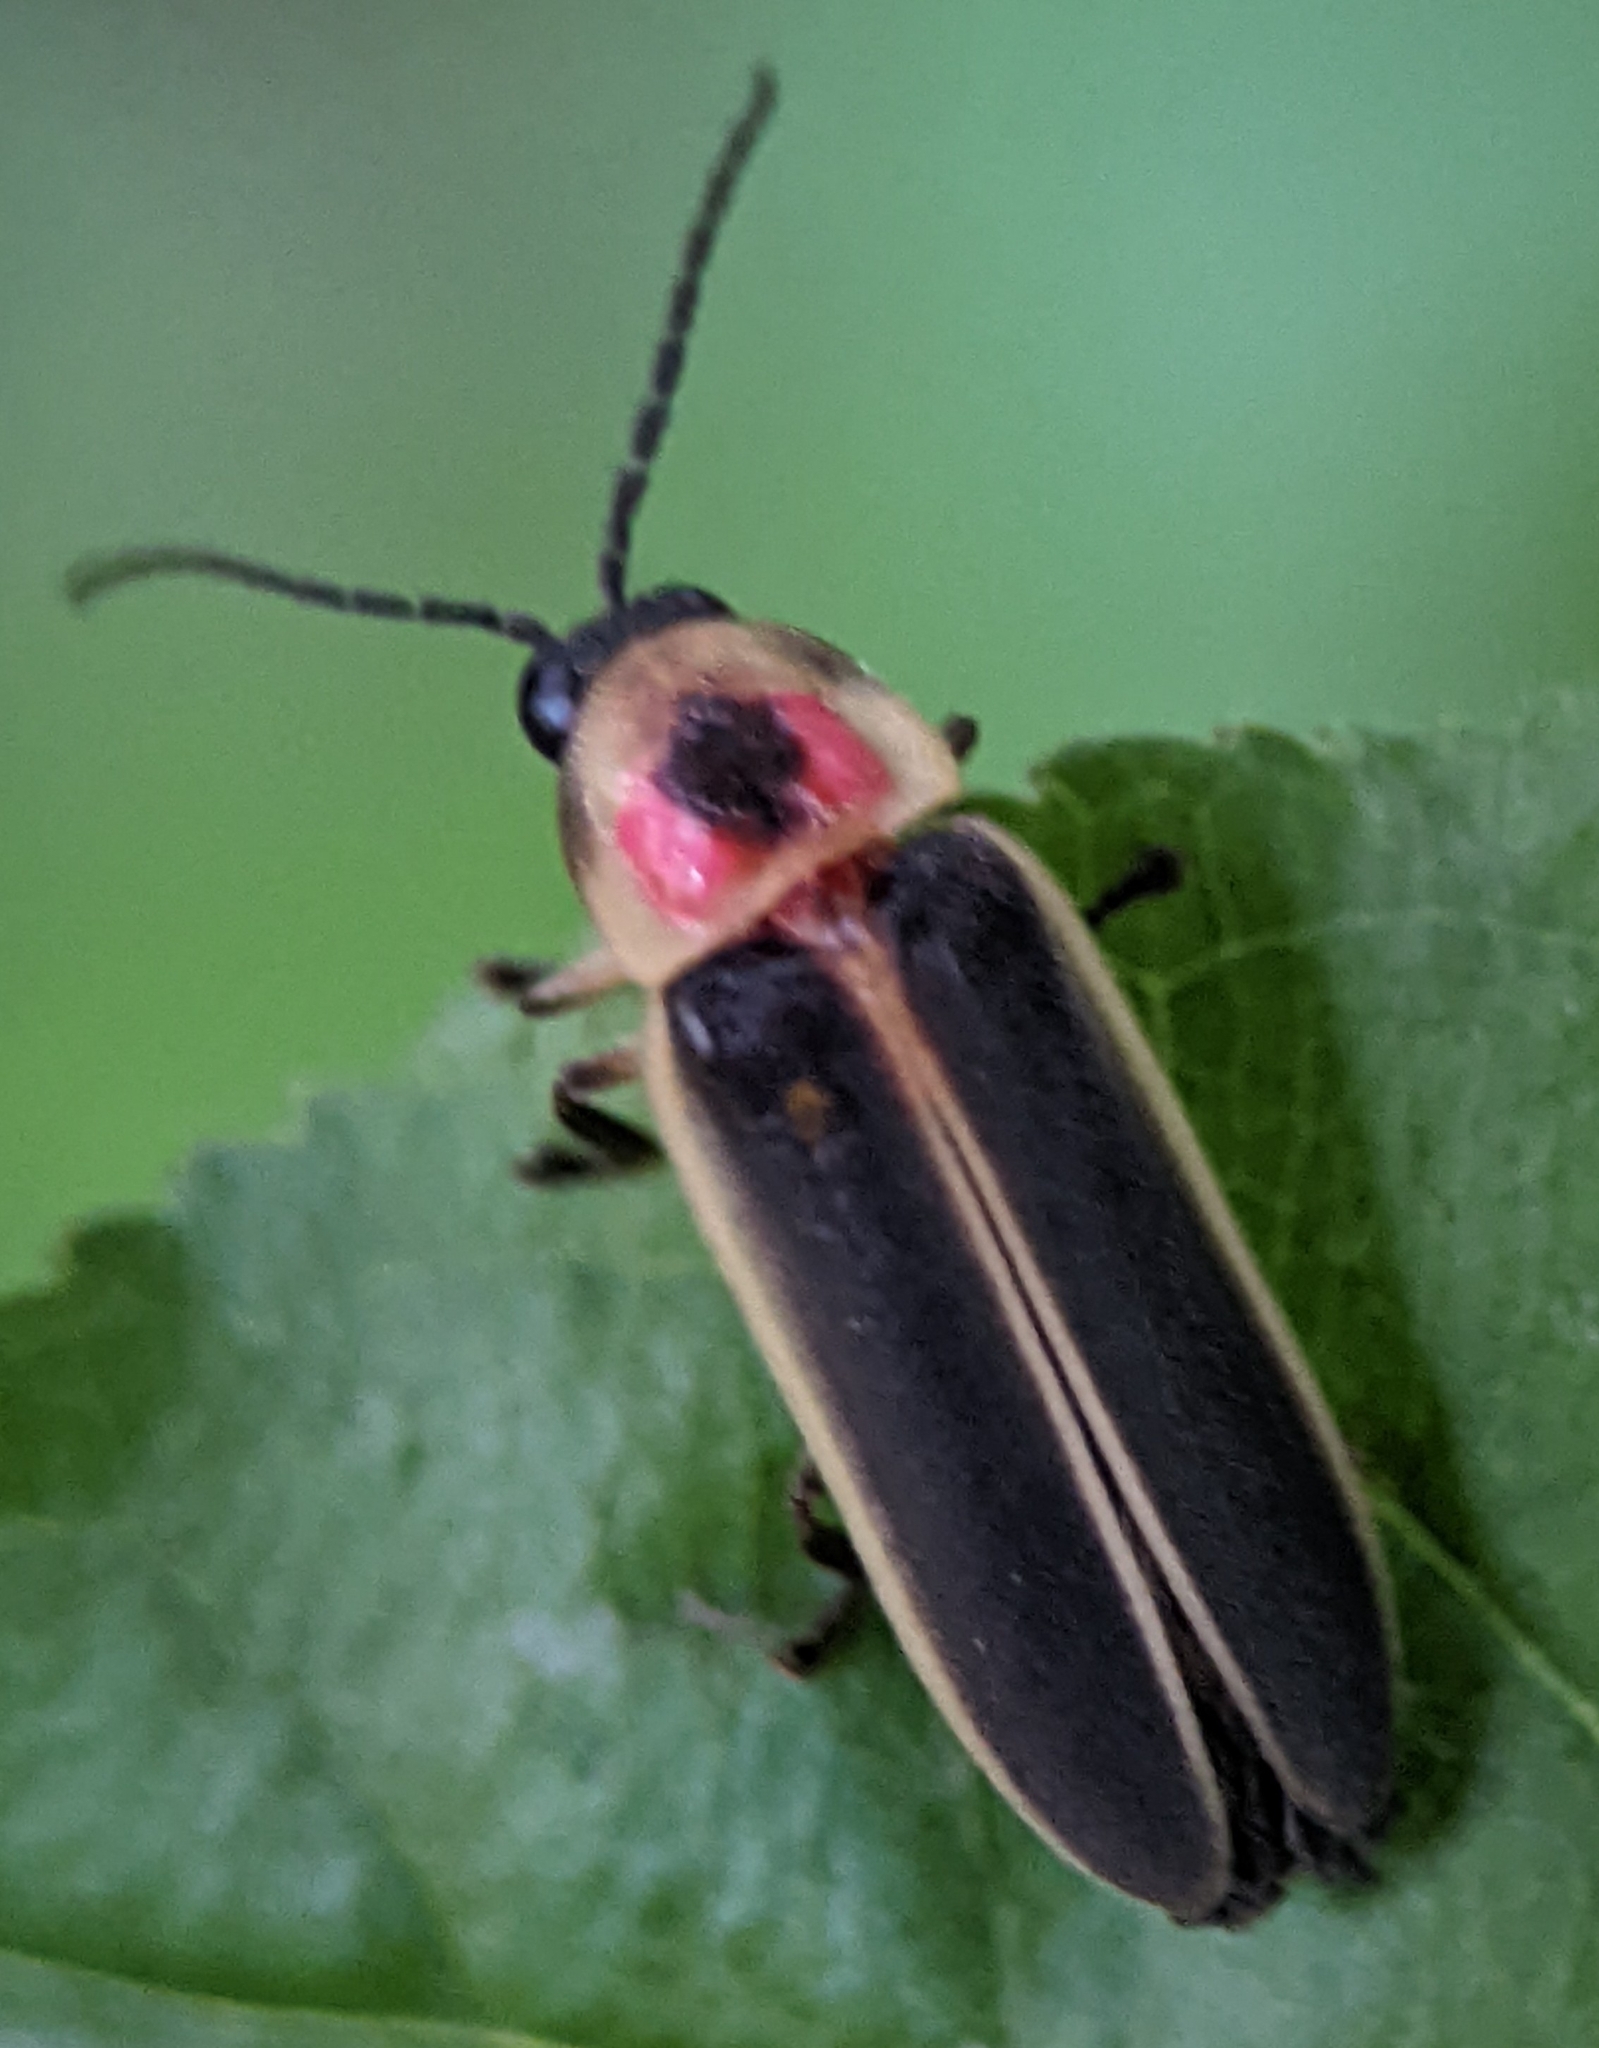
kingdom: Animalia
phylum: Arthropoda
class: Insecta
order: Coleoptera
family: Lampyridae
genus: Photinus
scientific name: Photinus pyralis
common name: Big dipper firefly
